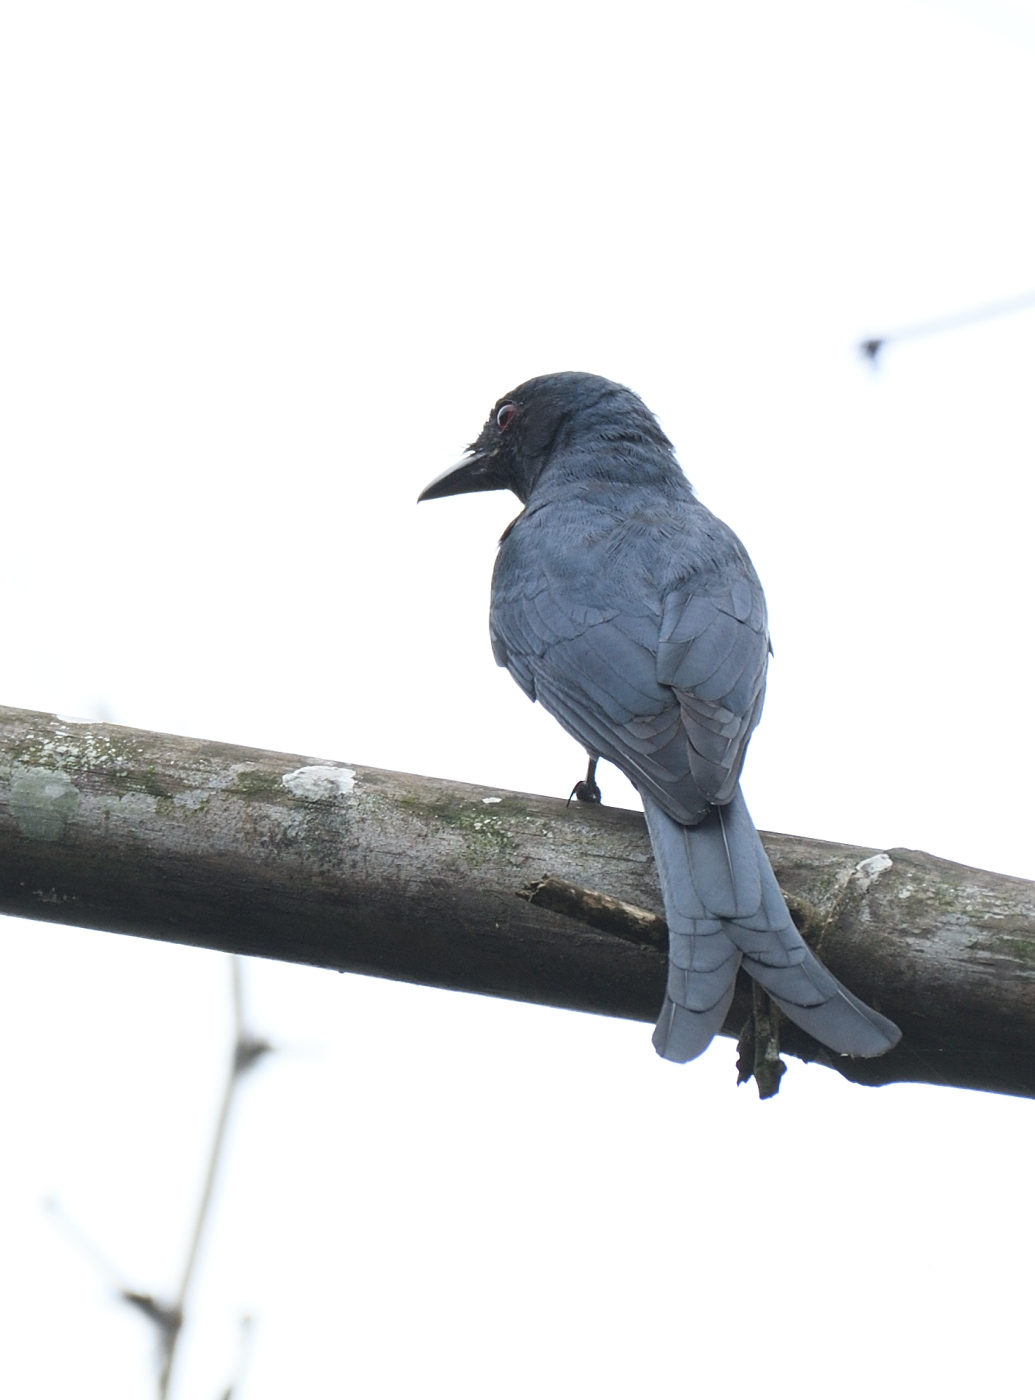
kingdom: Animalia
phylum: Chordata
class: Aves
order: Passeriformes
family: Dicruridae
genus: Dicrurus
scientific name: Dicrurus leucophaeus
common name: Ashy drongo
